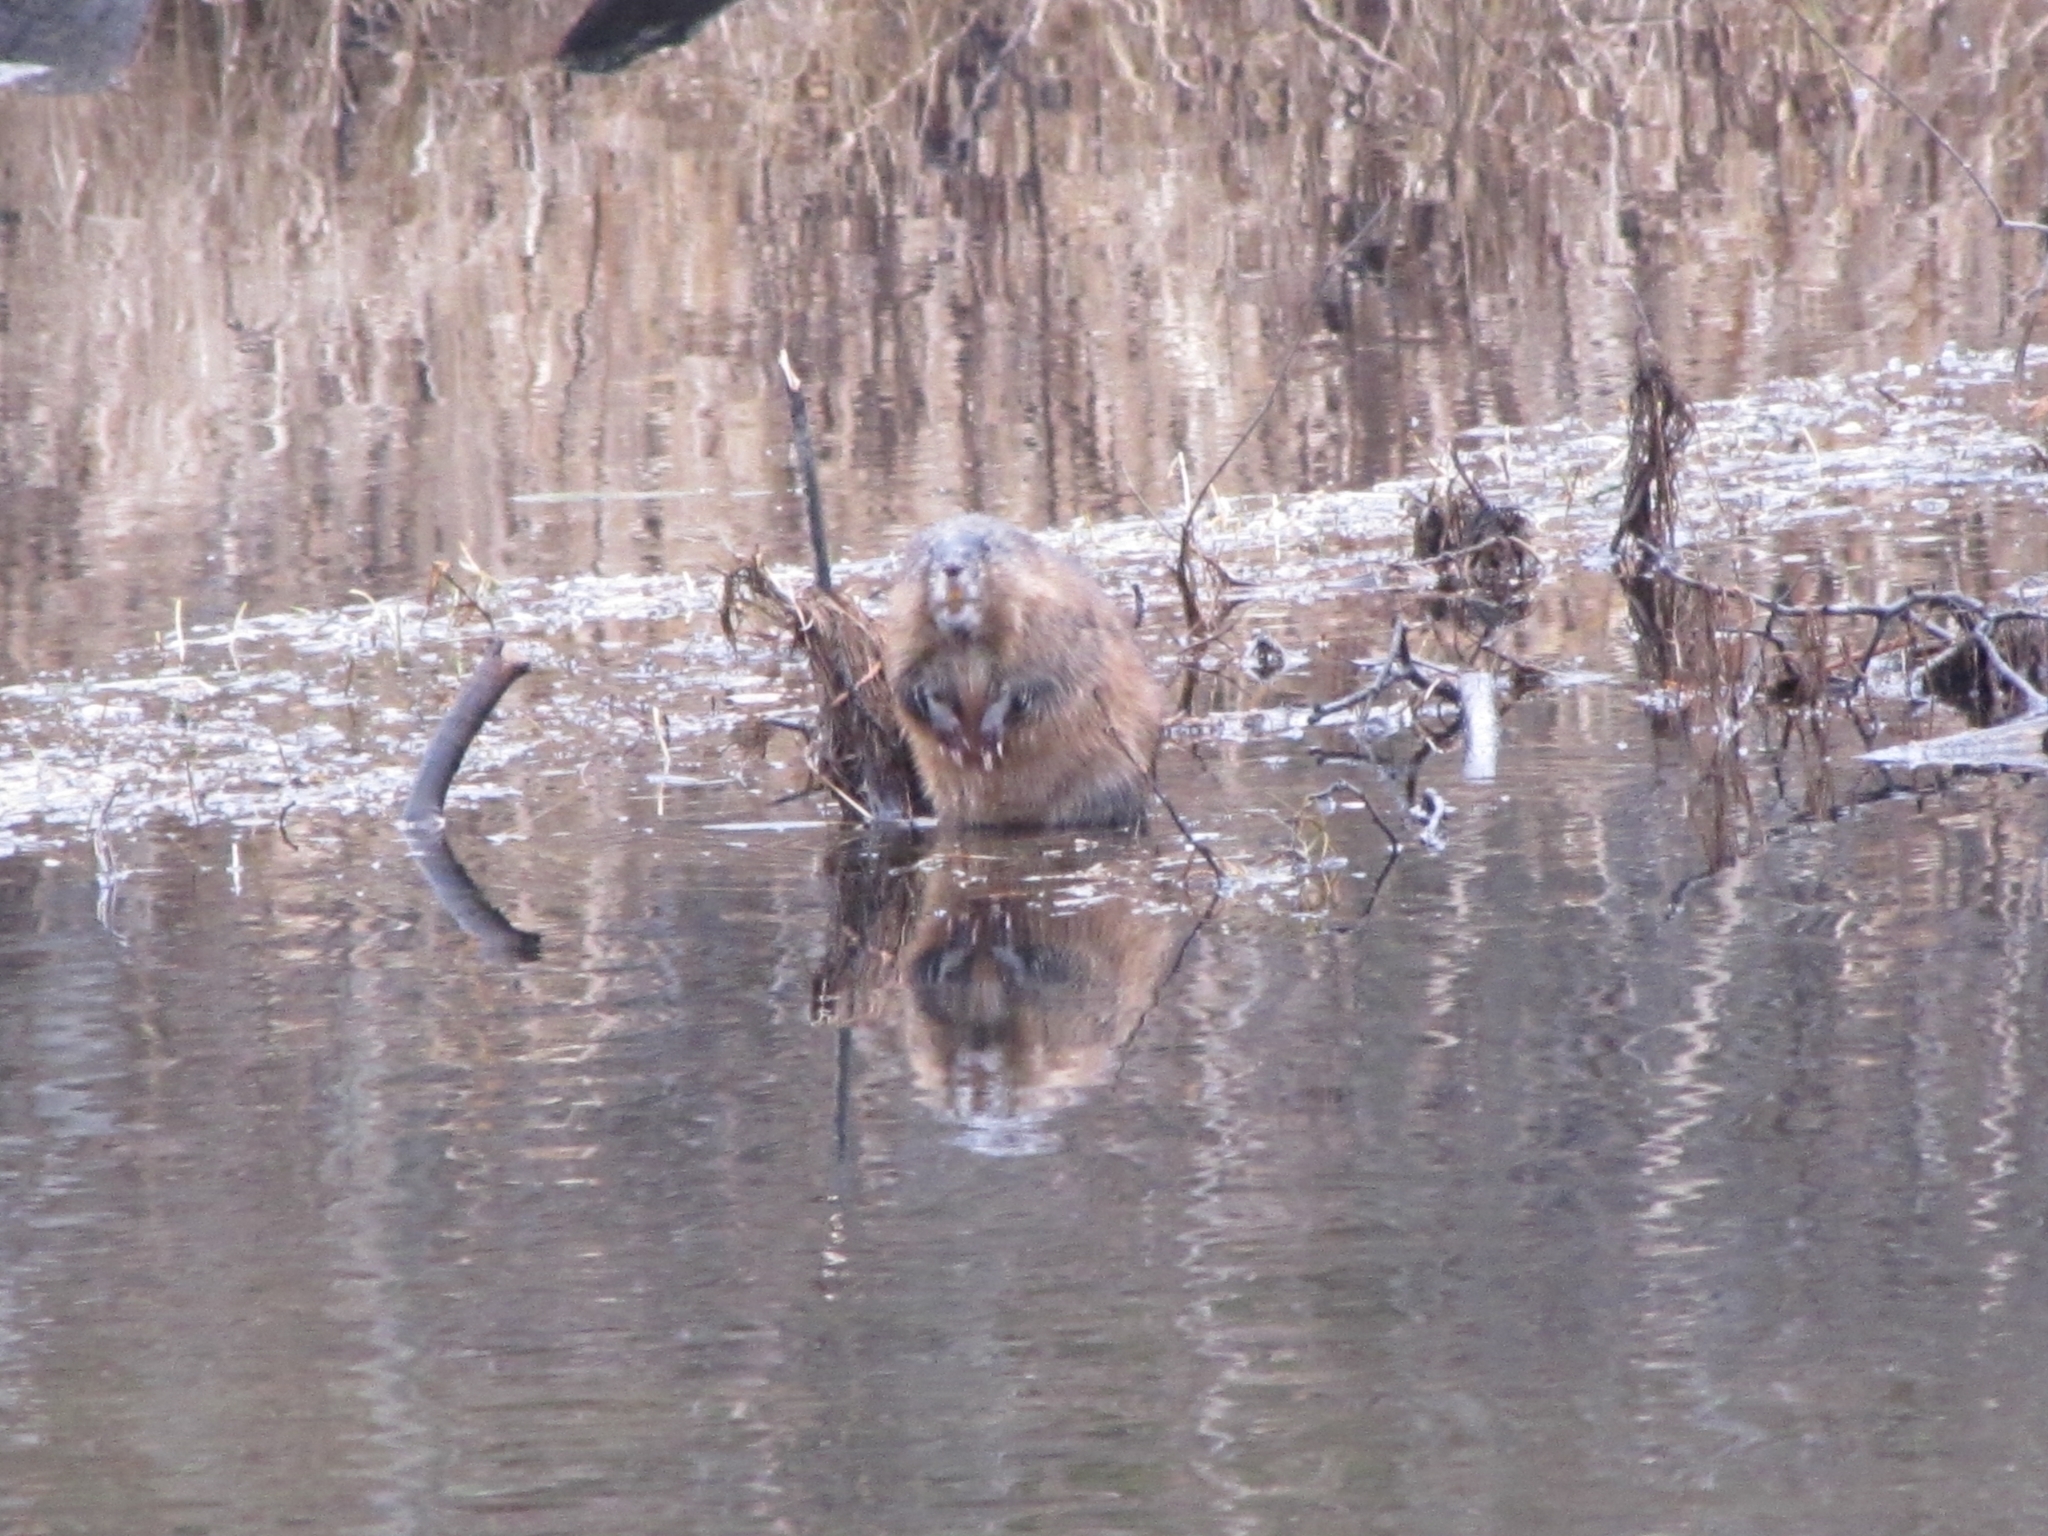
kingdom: Animalia
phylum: Chordata
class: Mammalia
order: Rodentia
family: Cricetidae
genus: Ondatra
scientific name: Ondatra zibethicus
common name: Muskrat
